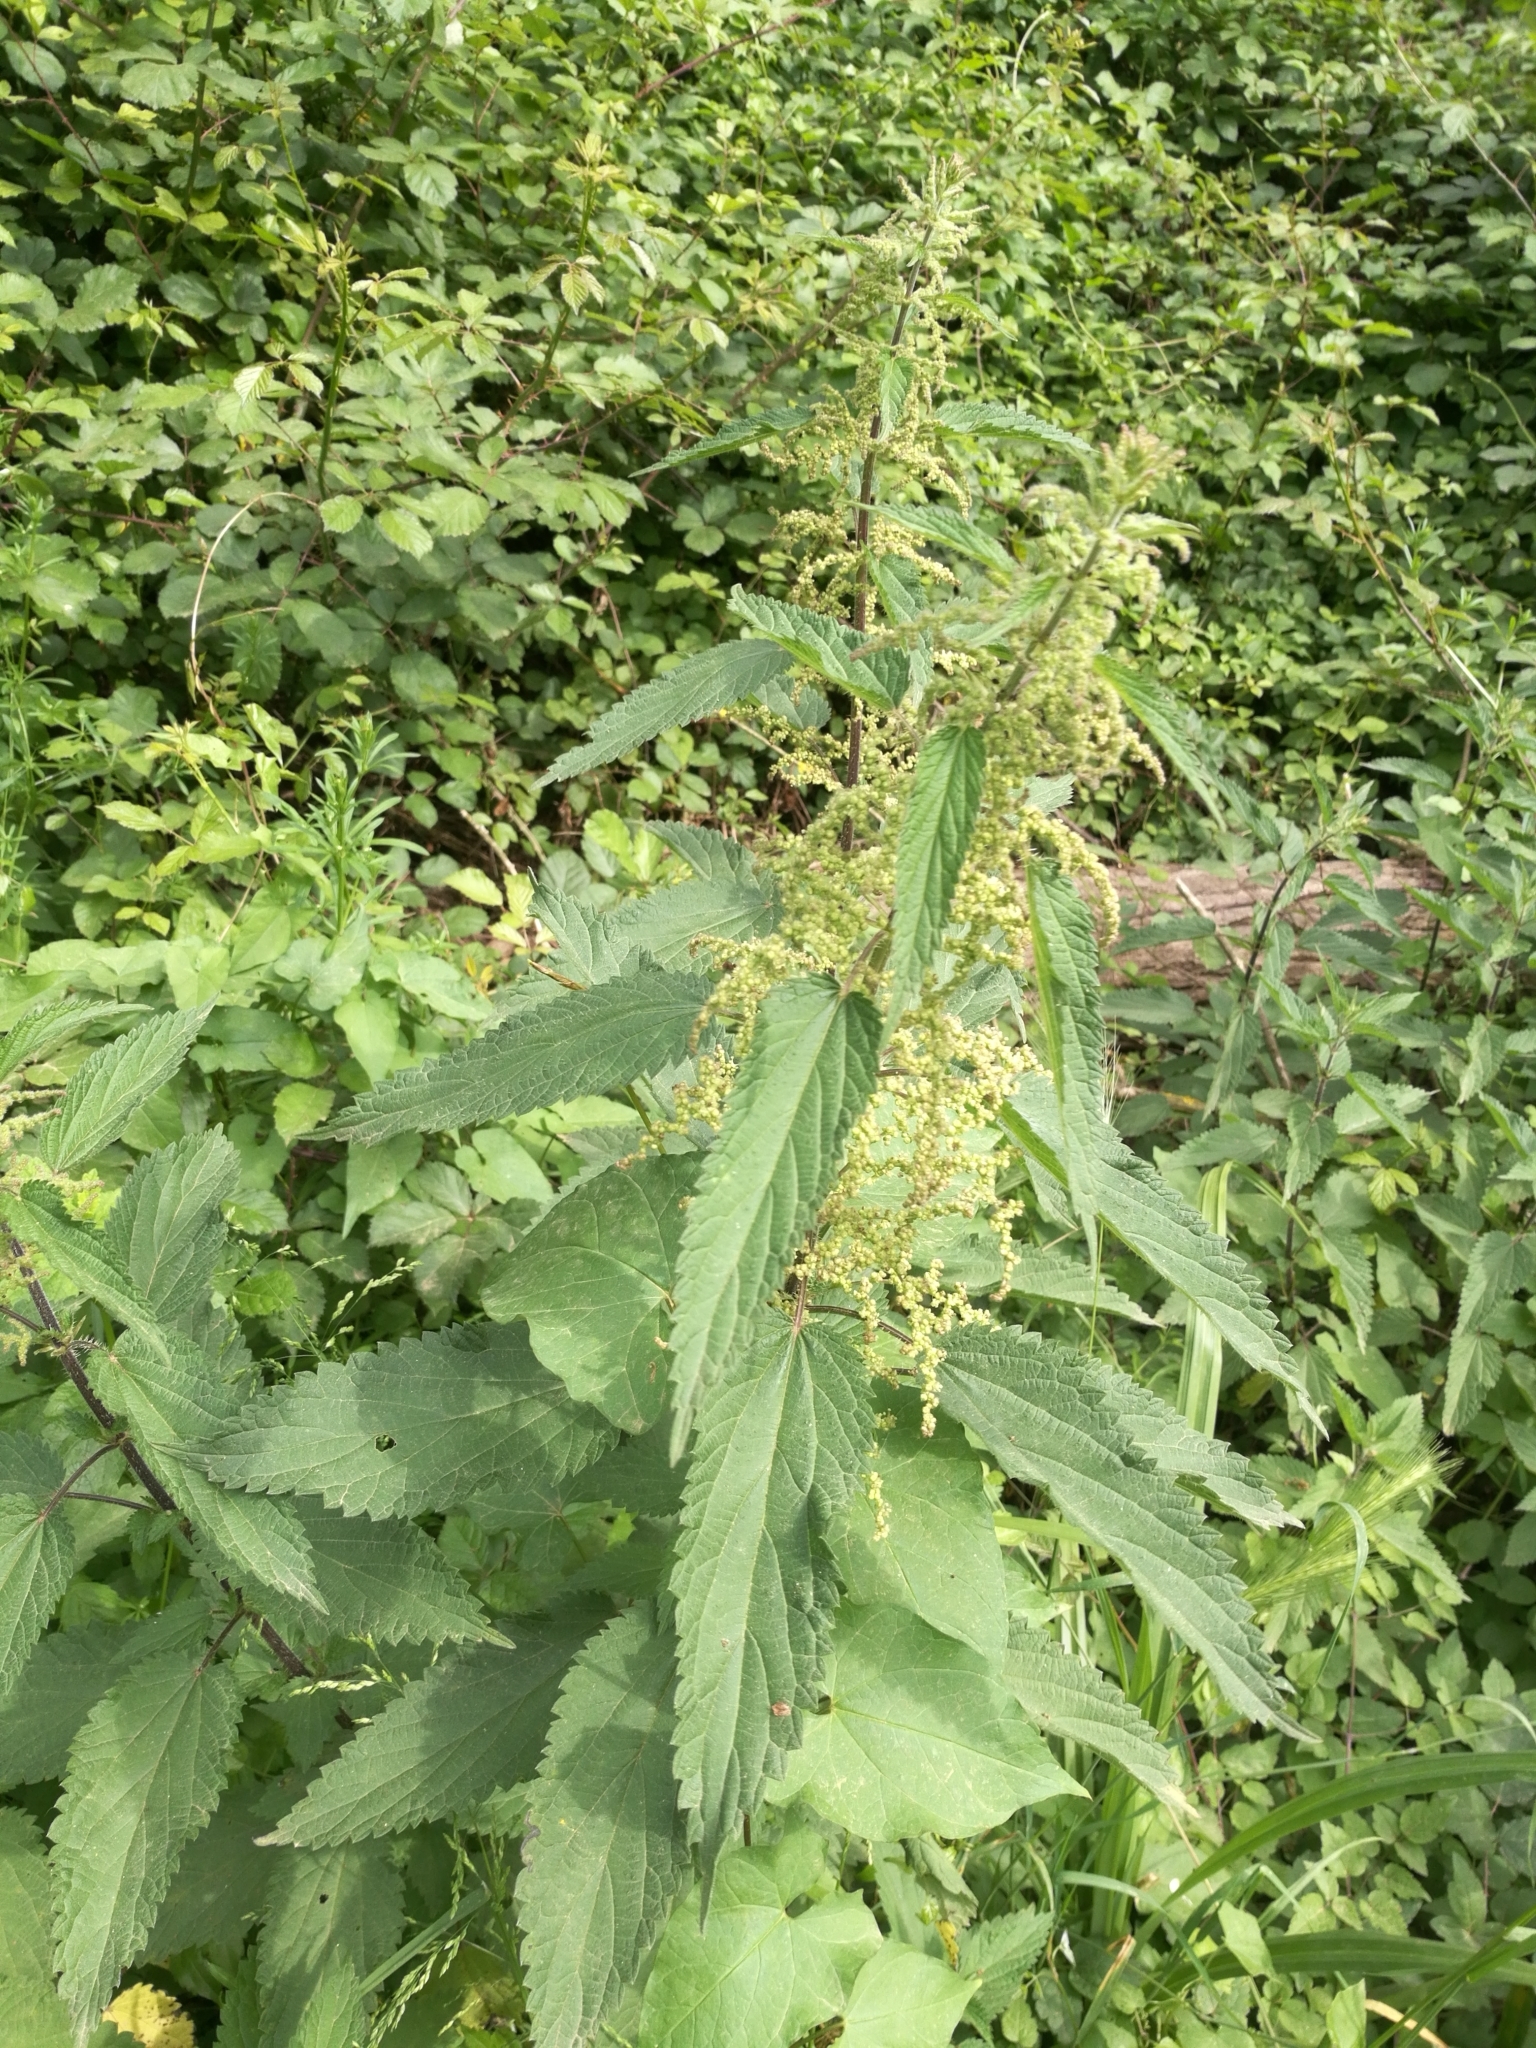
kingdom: Plantae
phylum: Tracheophyta
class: Magnoliopsida
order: Rosales
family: Urticaceae
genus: Urtica
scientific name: Urtica dioica
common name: Common nettle
